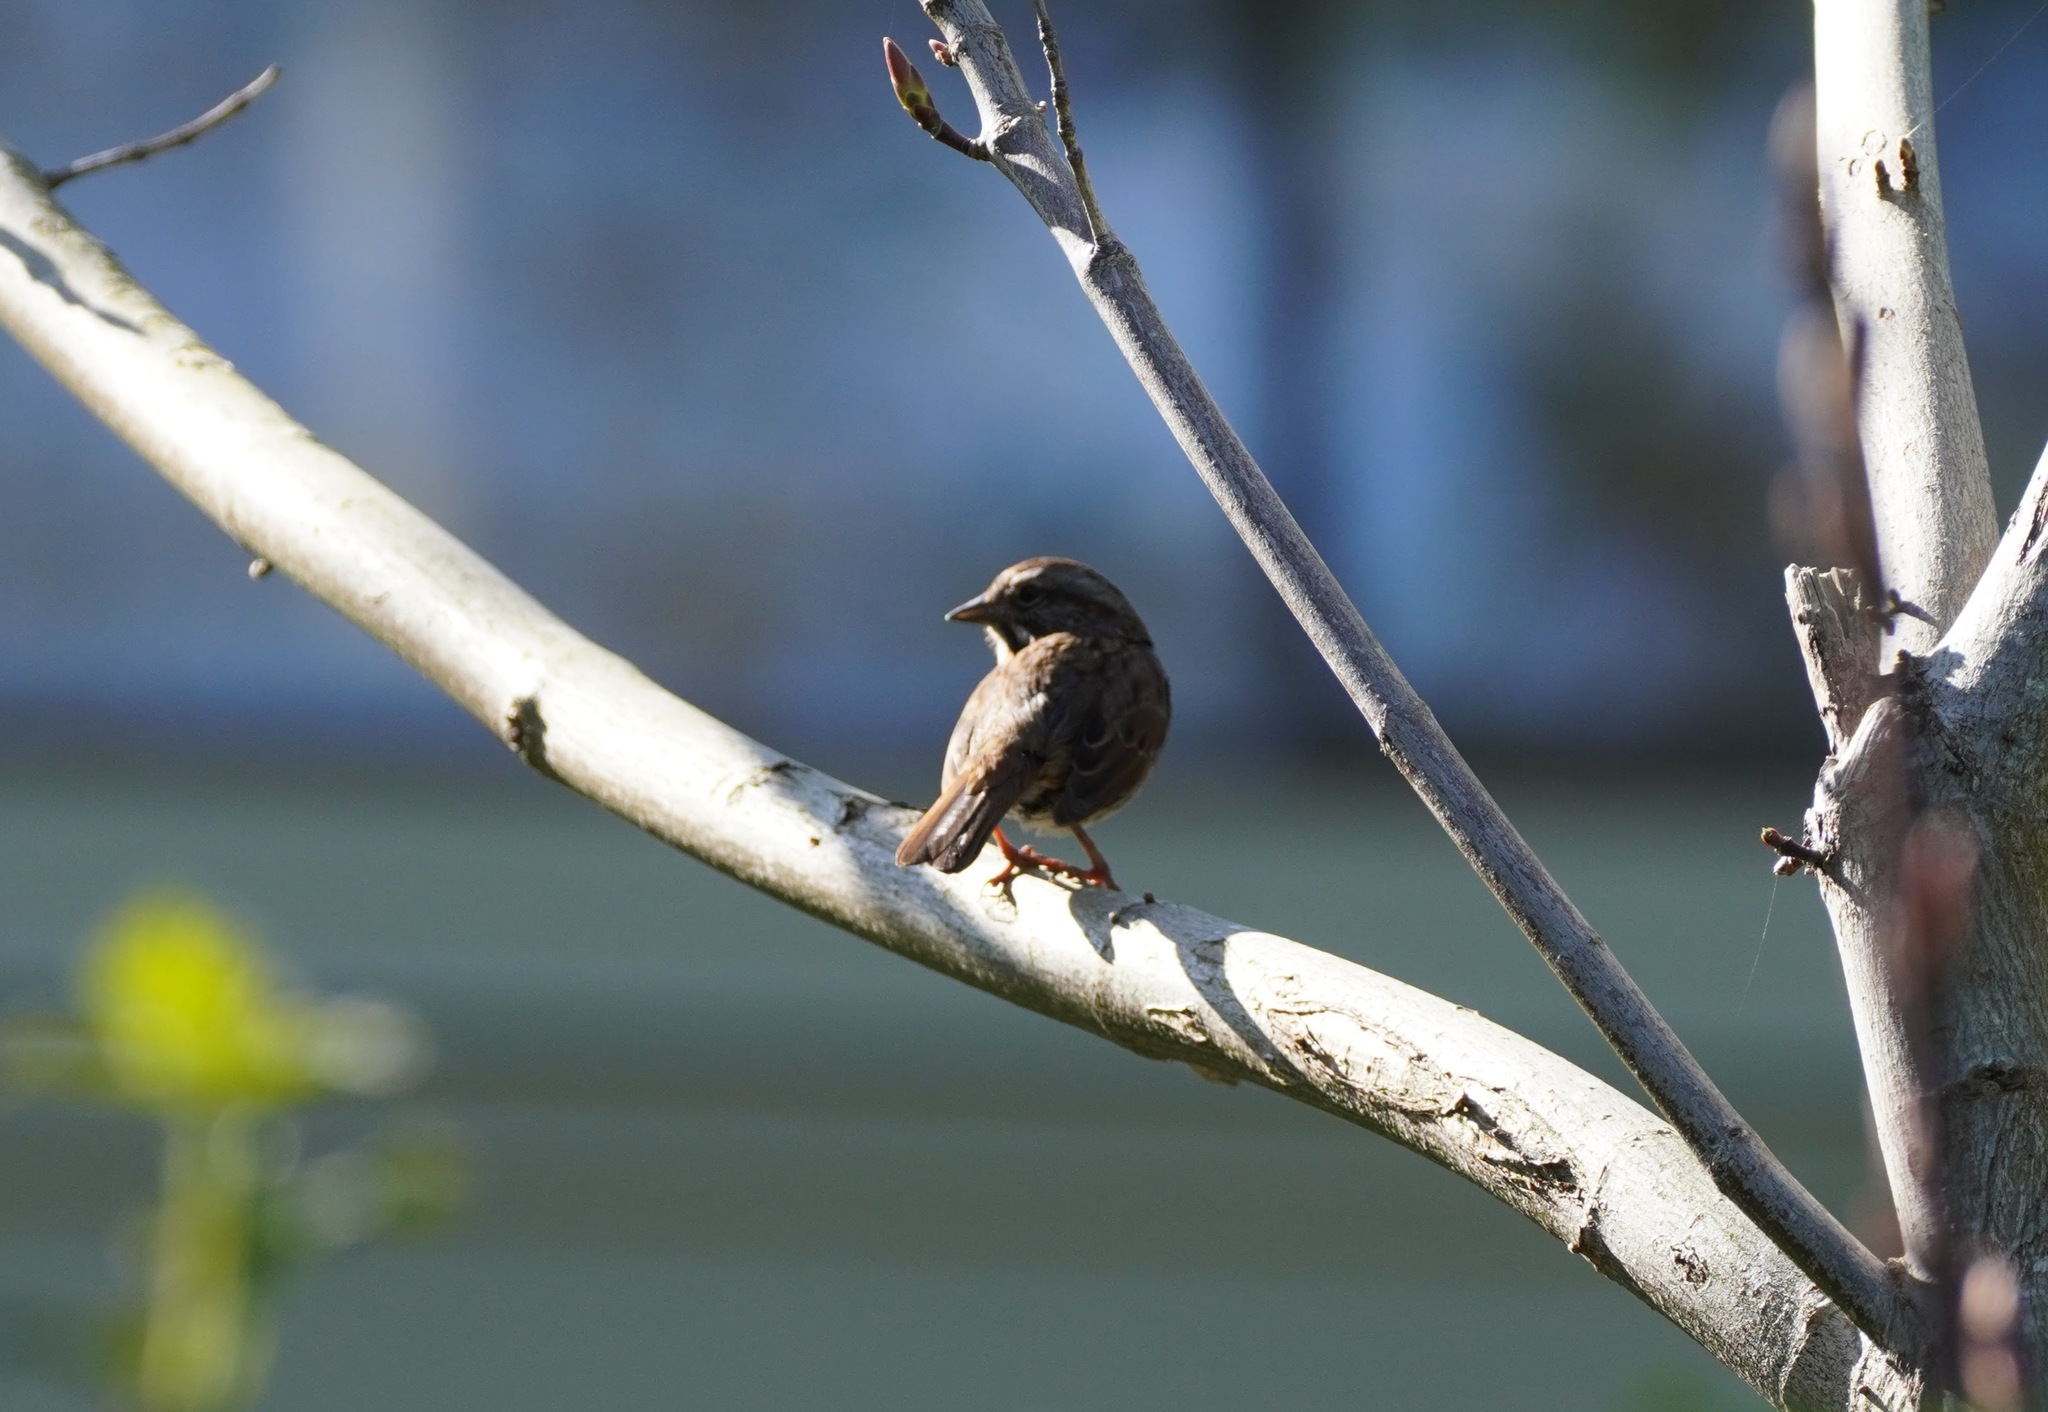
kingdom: Animalia
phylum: Chordata
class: Aves
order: Passeriformes
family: Passerellidae
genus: Melospiza
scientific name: Melospiza melodia
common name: Song sparrow
